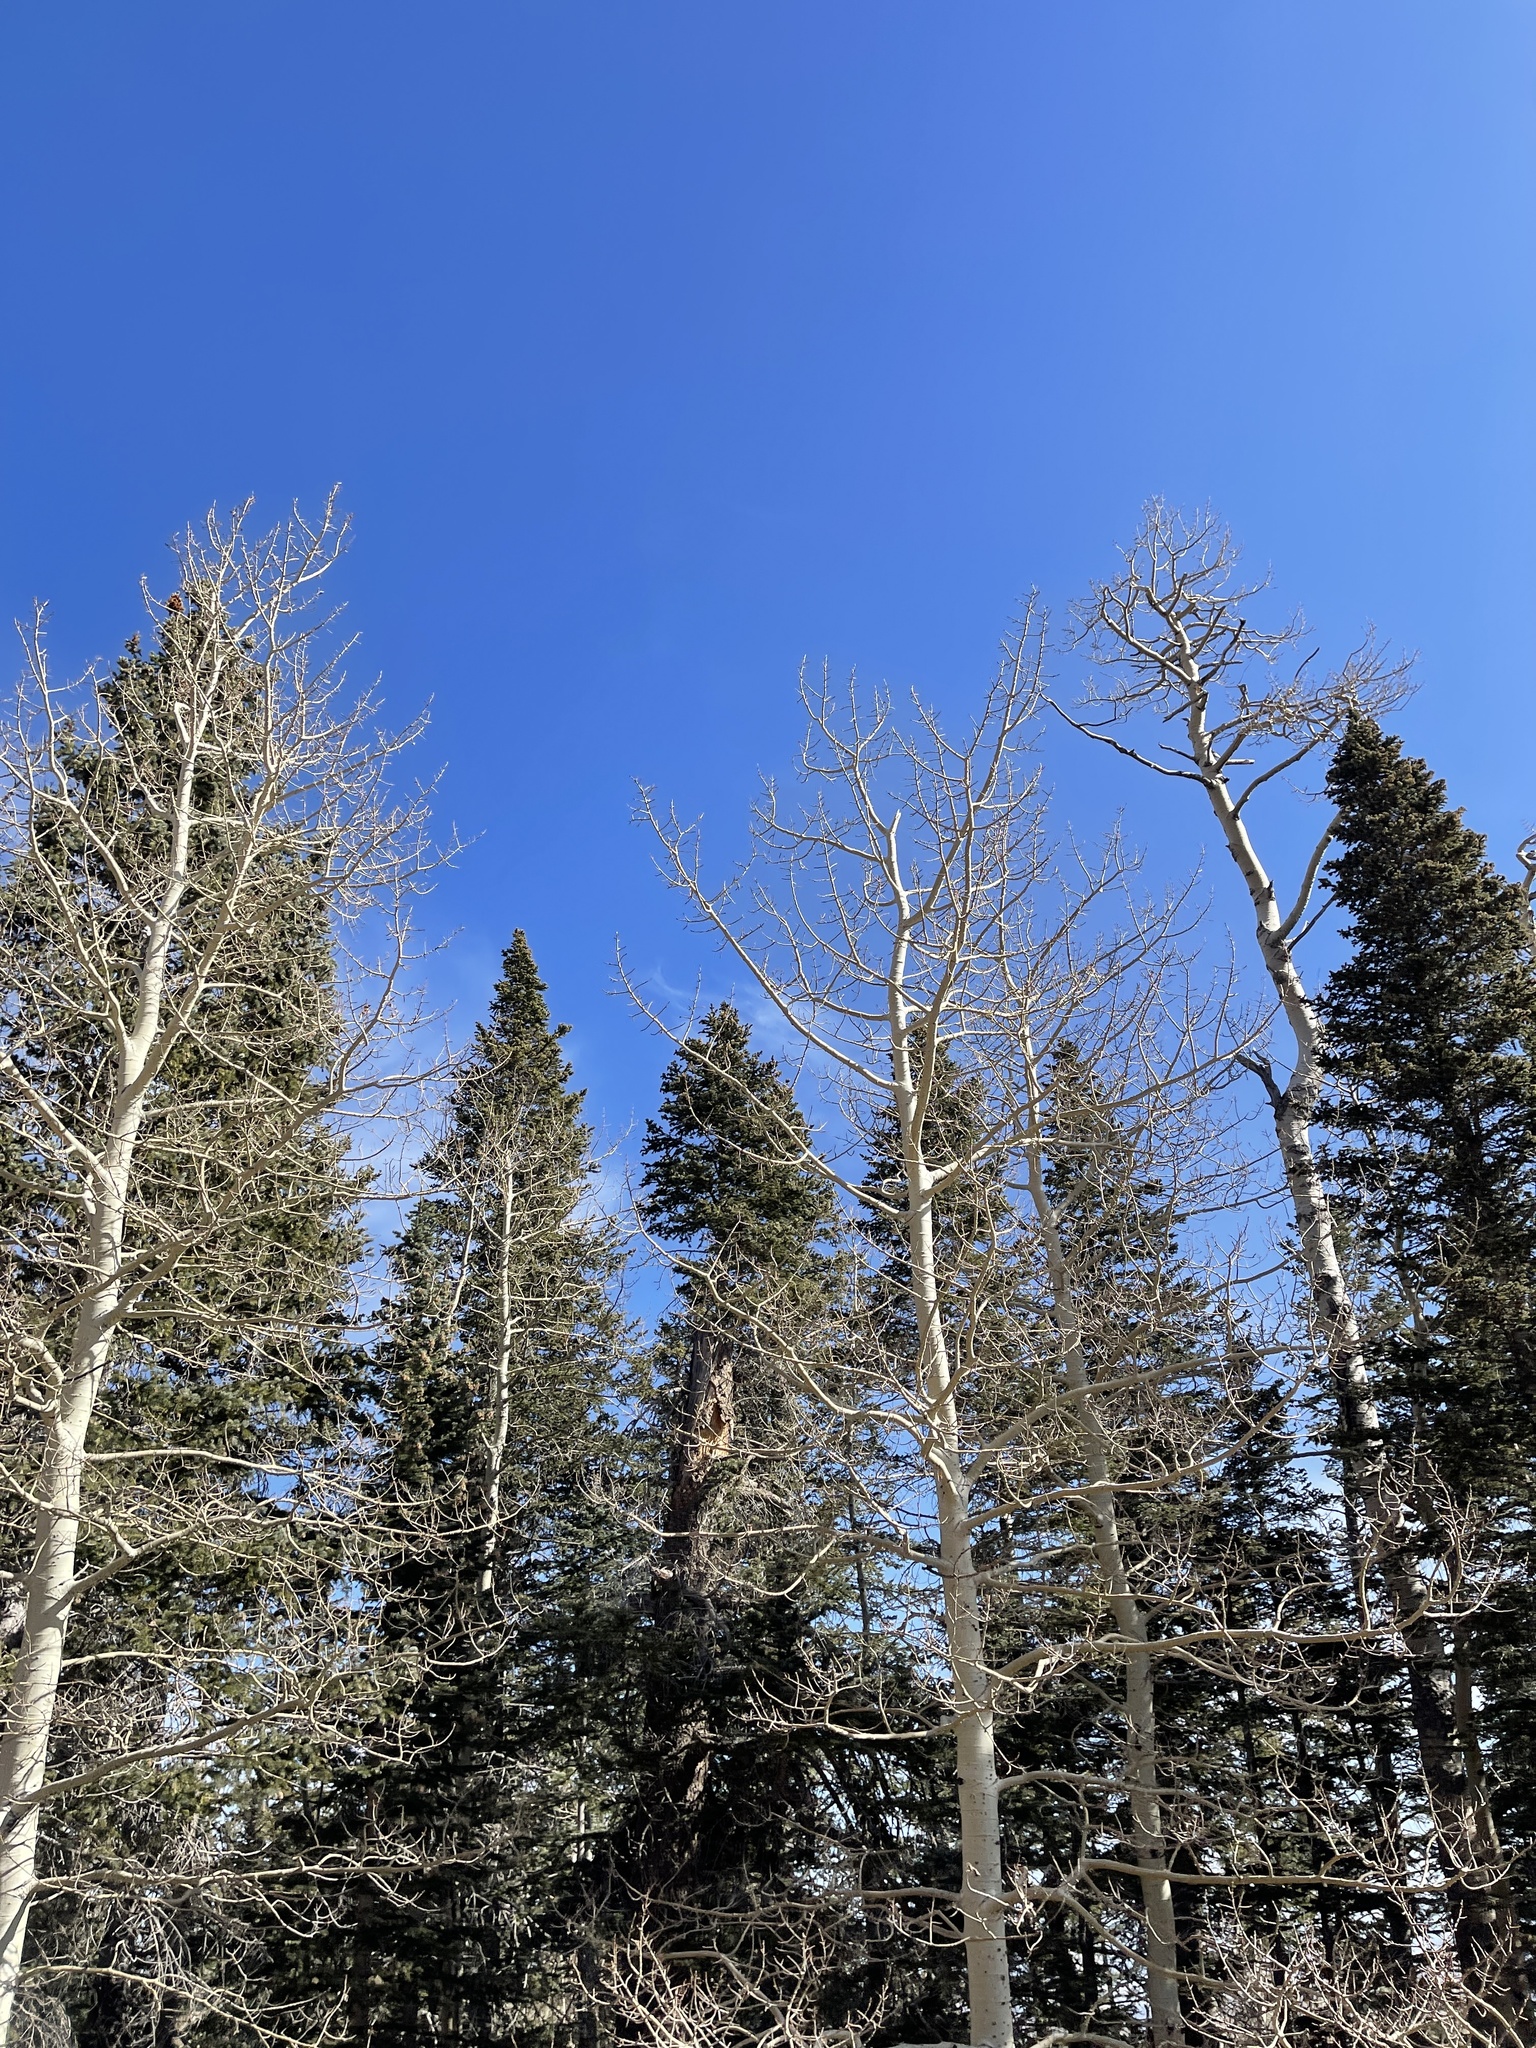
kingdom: Plantae
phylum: Tracheophyta
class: Magnoliopsida
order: Malpighiales
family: Salicaceae
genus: Populus
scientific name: Populus tremuloides
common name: Quaking aspen
